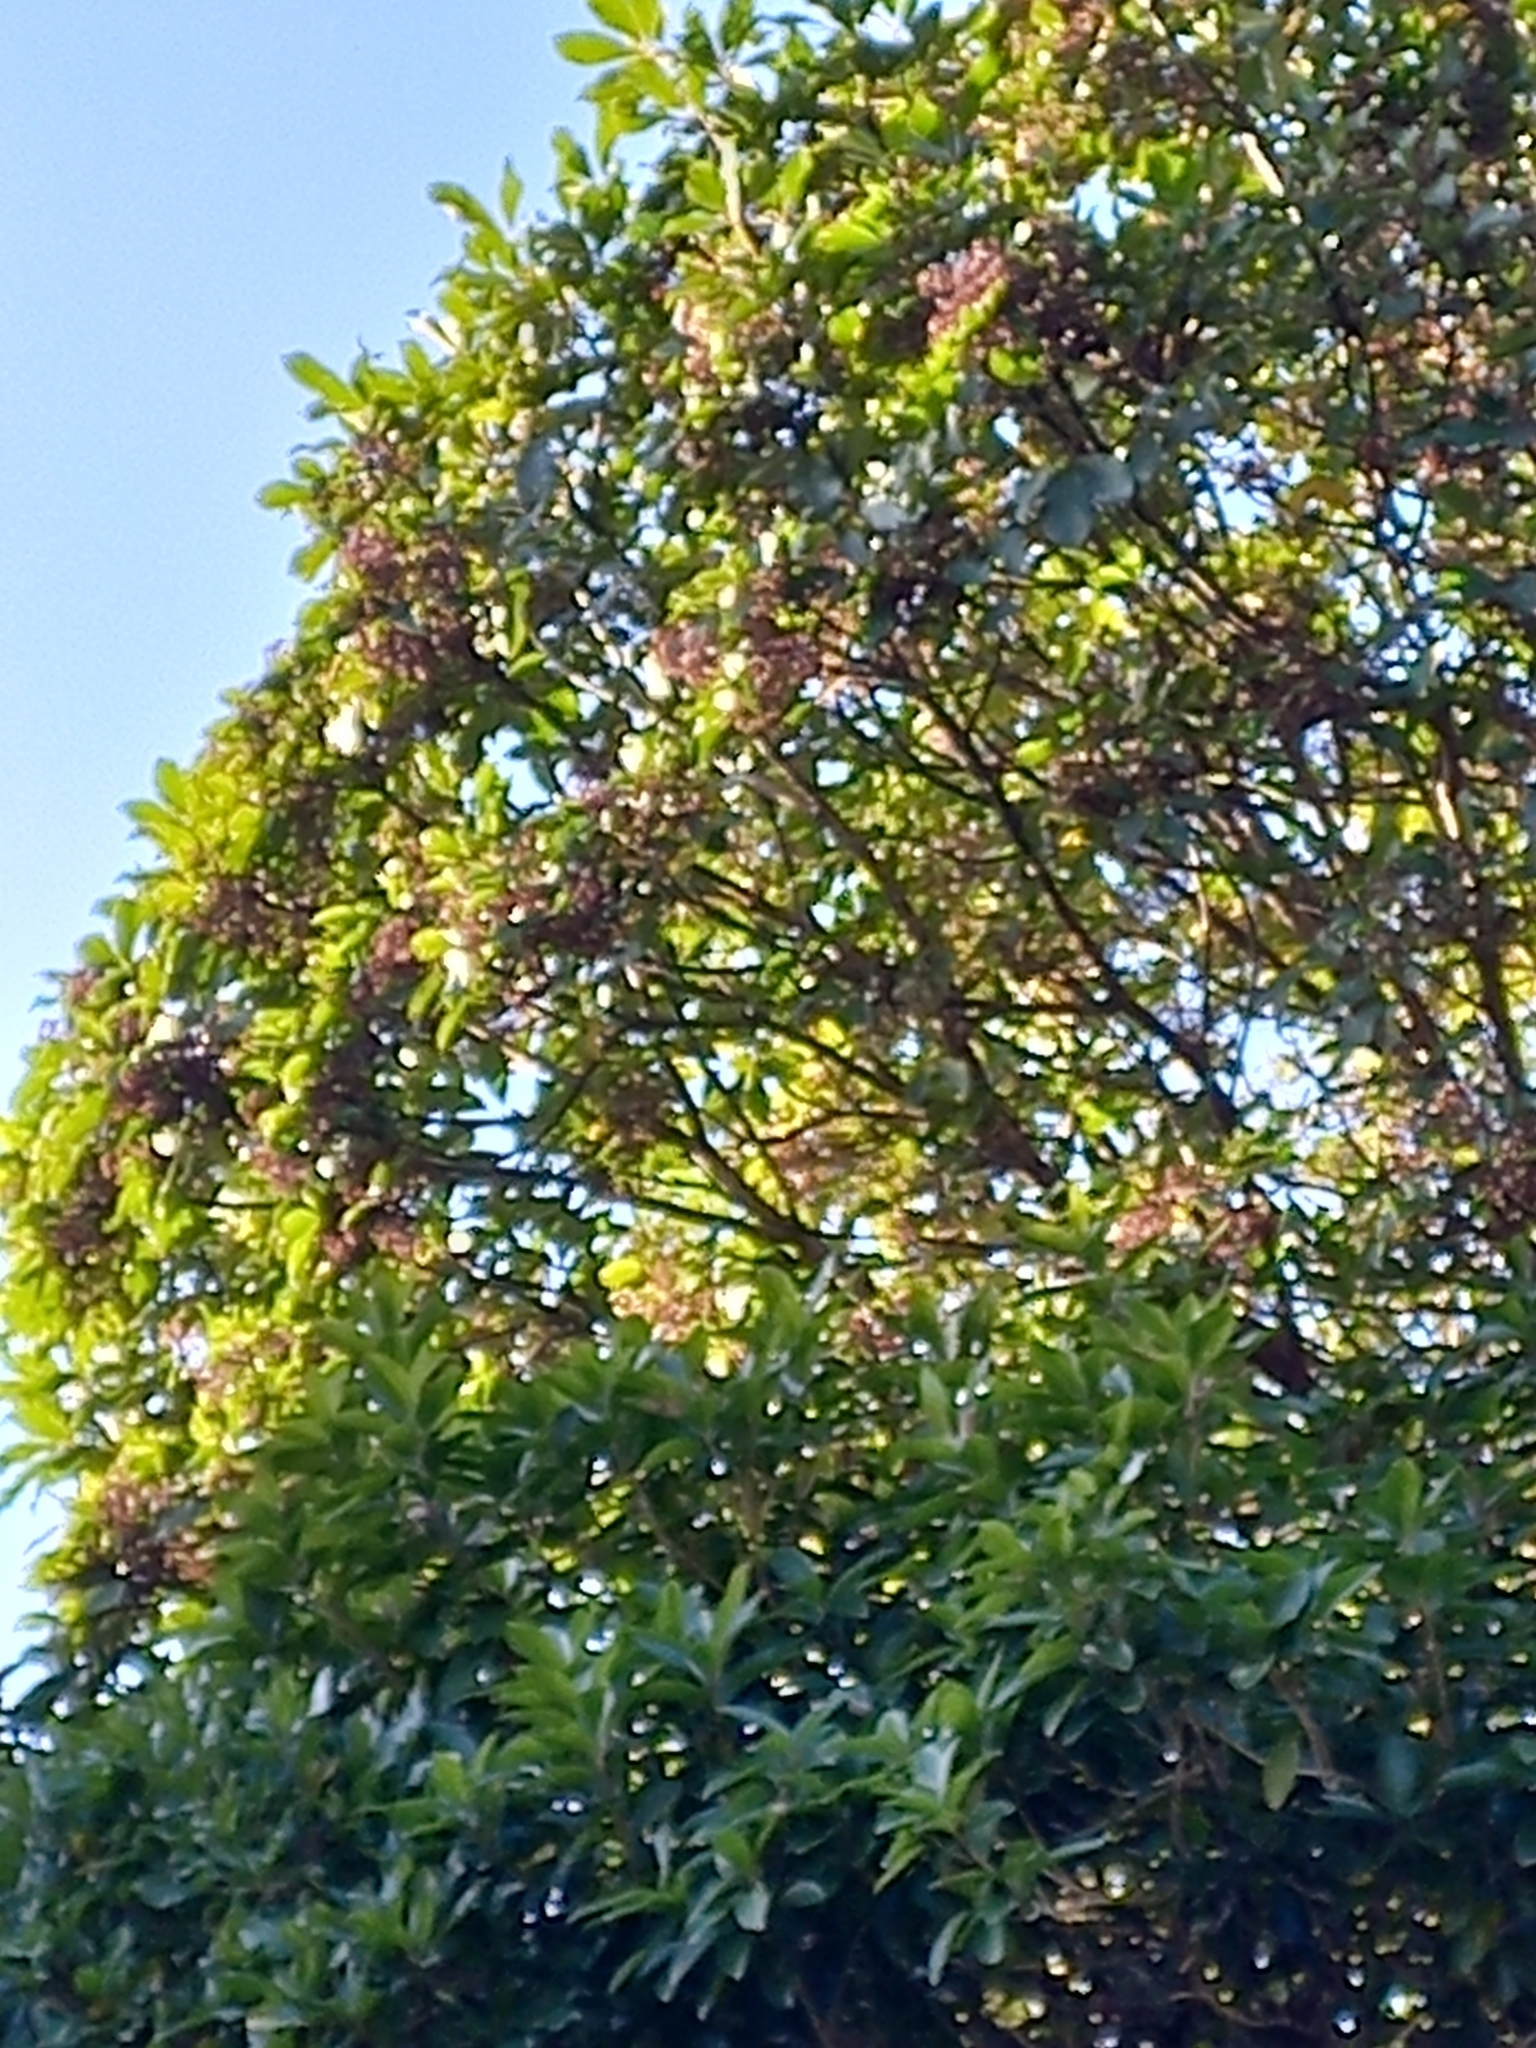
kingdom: Plantae
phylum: Tracheophyta
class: Magnoliopsida
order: Apiales
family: Araliaceae
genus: Neopanax
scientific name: Neopanax arboreus
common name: Five-fingers
